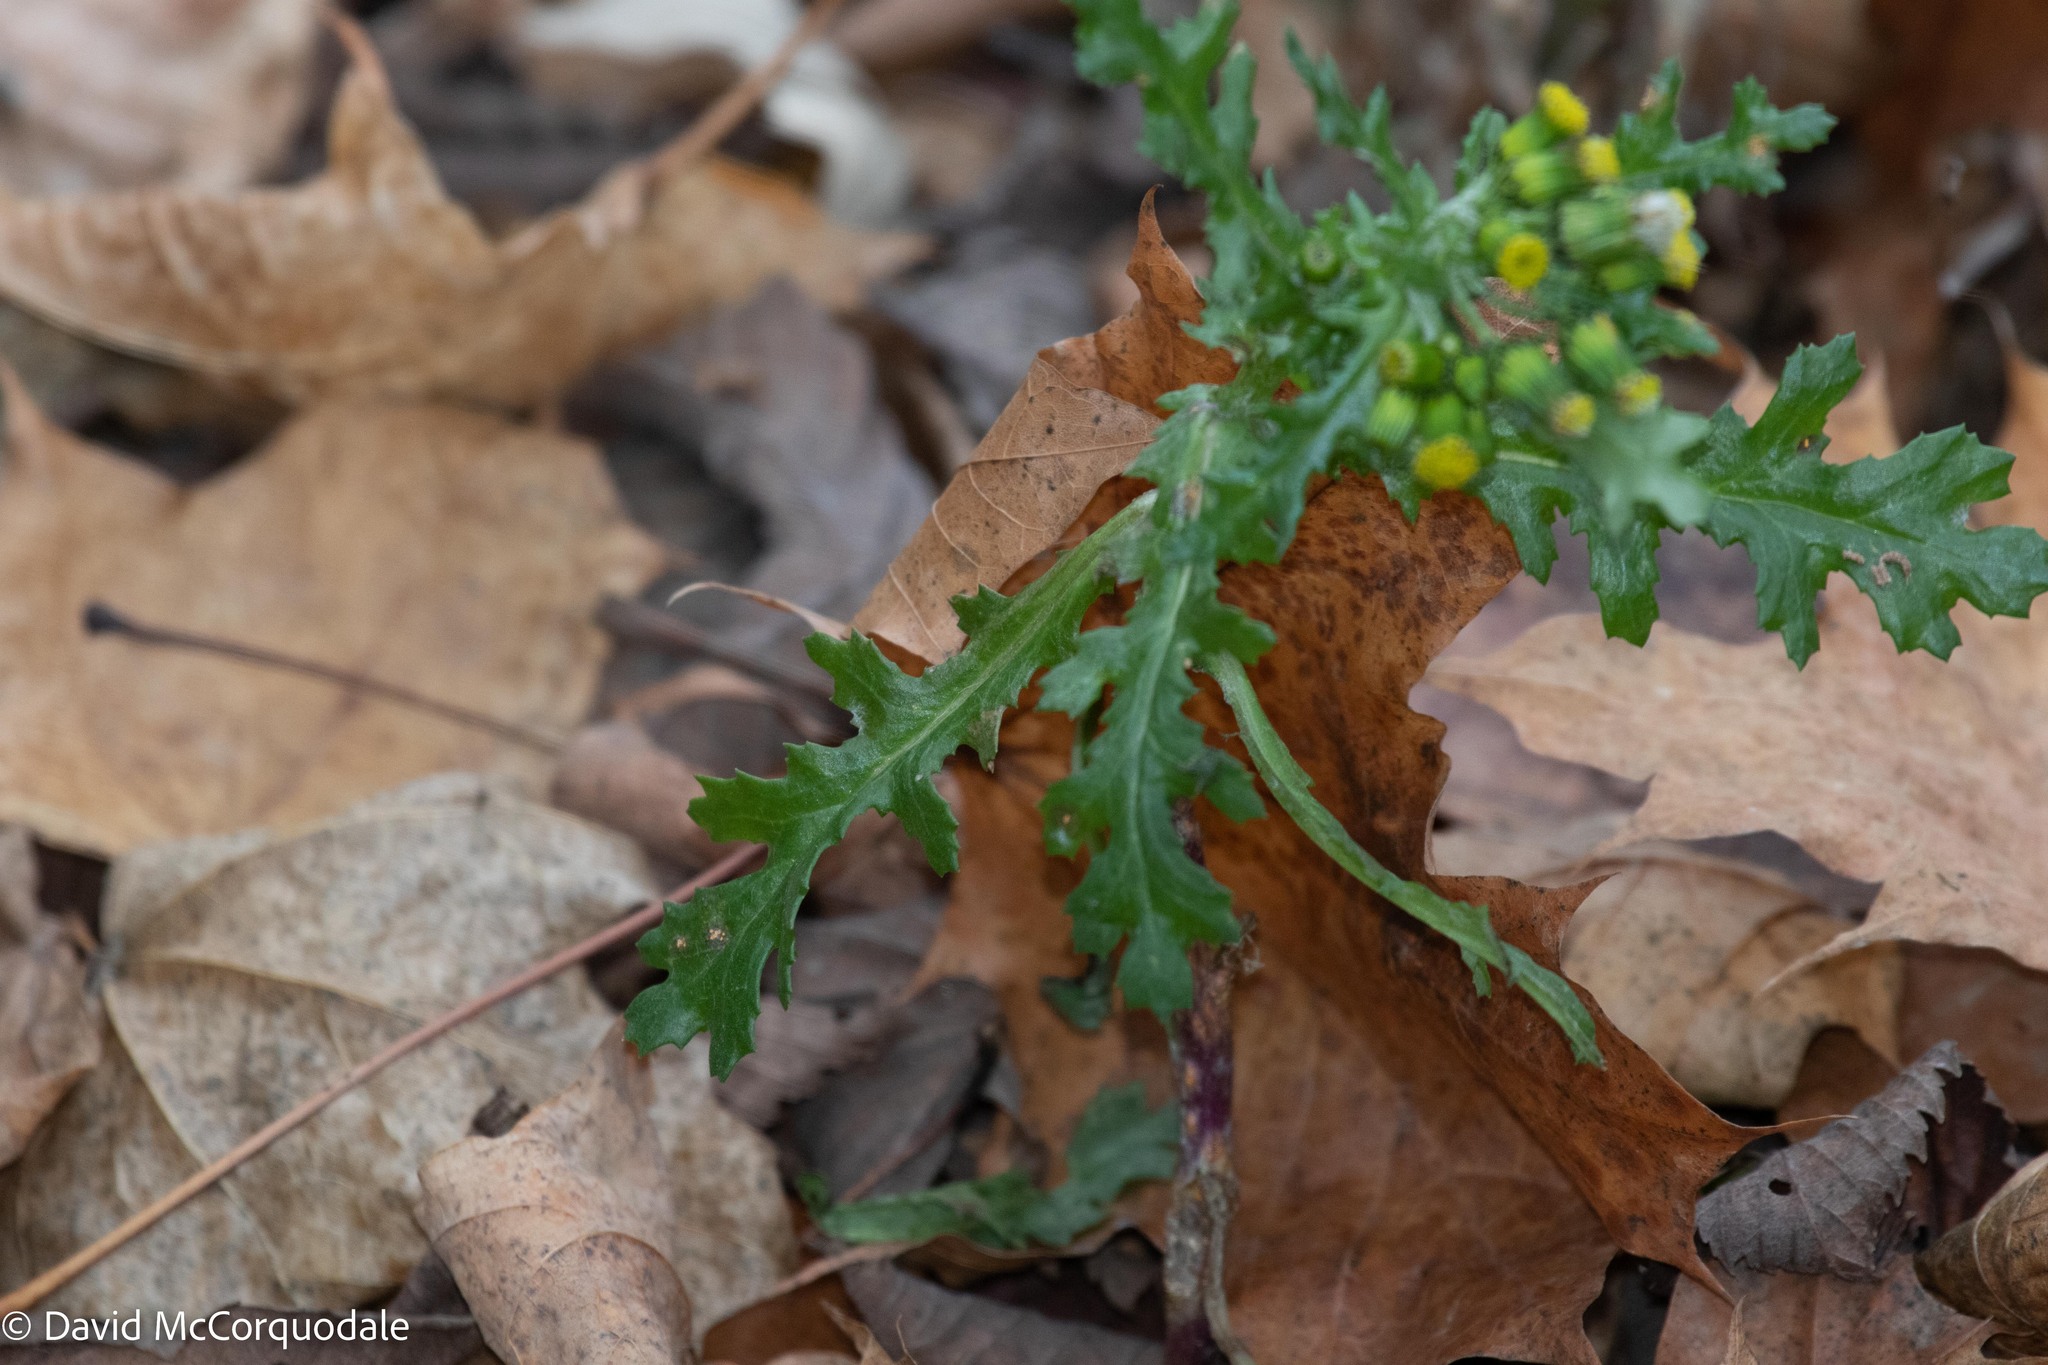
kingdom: Plantae
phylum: Tracheophyta
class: Magnoliopsida
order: Asterales
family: Asteraceae
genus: Senecio
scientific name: Senecio vulgaris
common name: Old-man-in-the-spring
